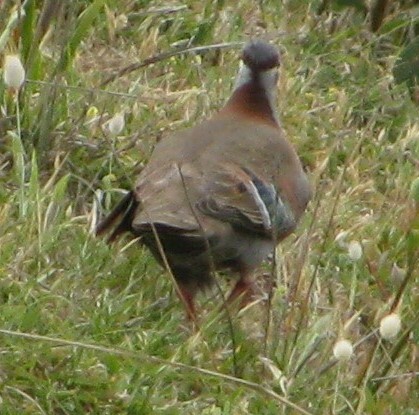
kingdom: Animalia
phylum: Chordata
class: Aves
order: Columbiformes
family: Columbidae
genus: Phaps
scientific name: Phaps elegans
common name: Brush bronzewing
